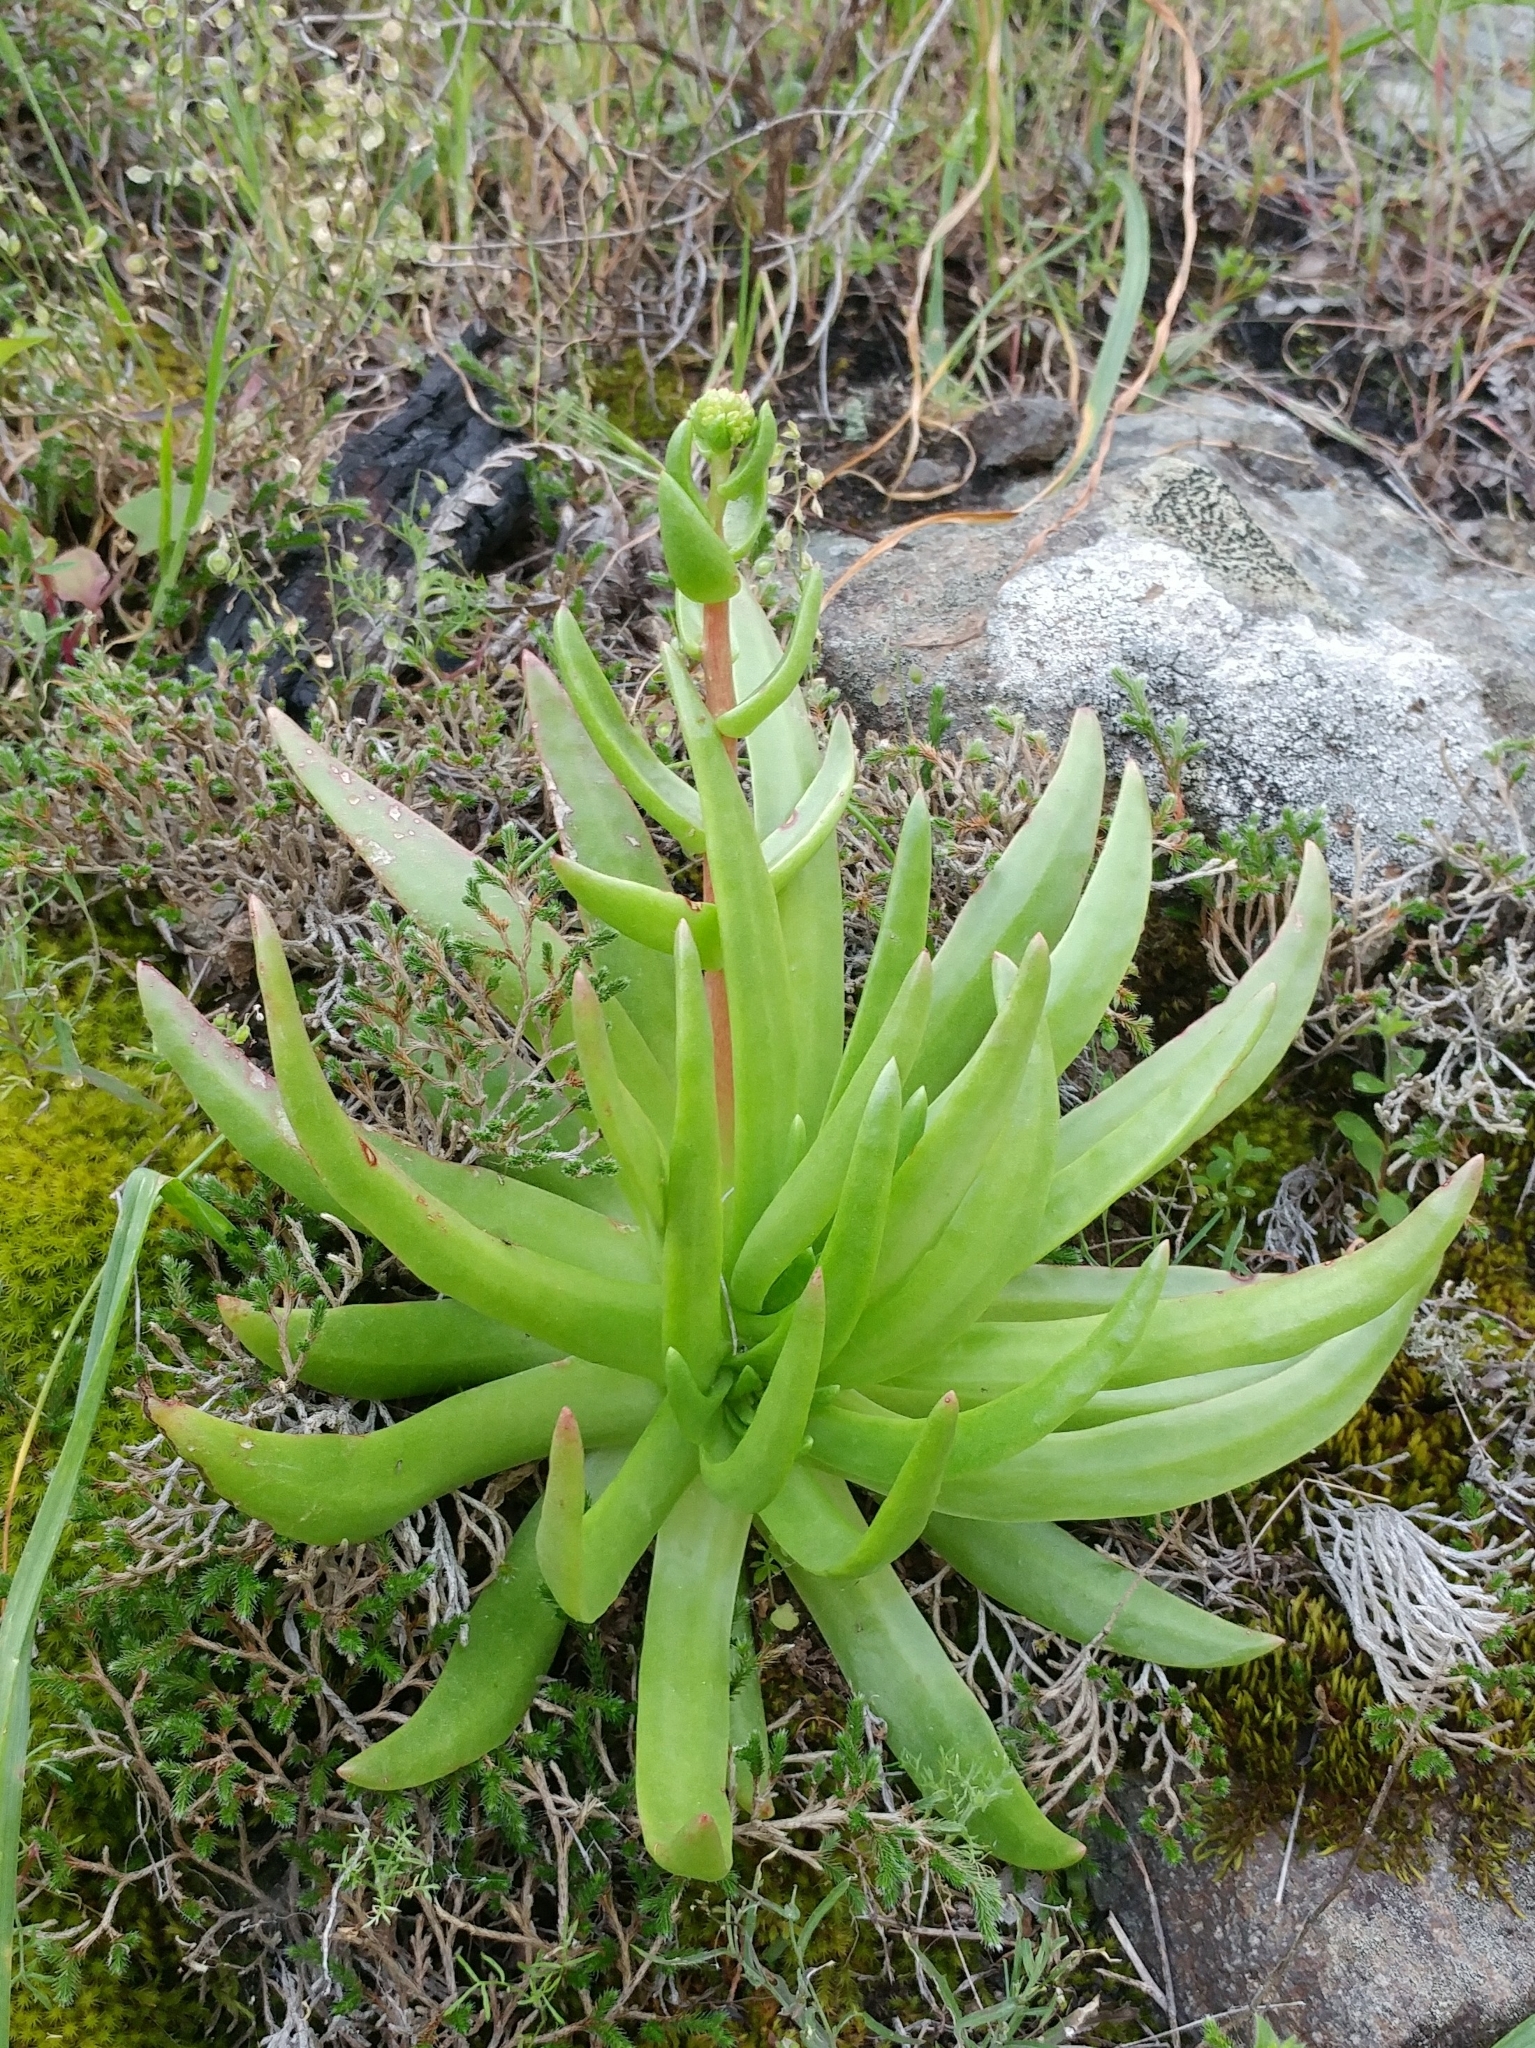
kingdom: Plantae
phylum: Tracheophyta
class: Magnoliopsida
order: Saxifragales
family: Crassulaceae
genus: Dudleya
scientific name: Dudleya virens
